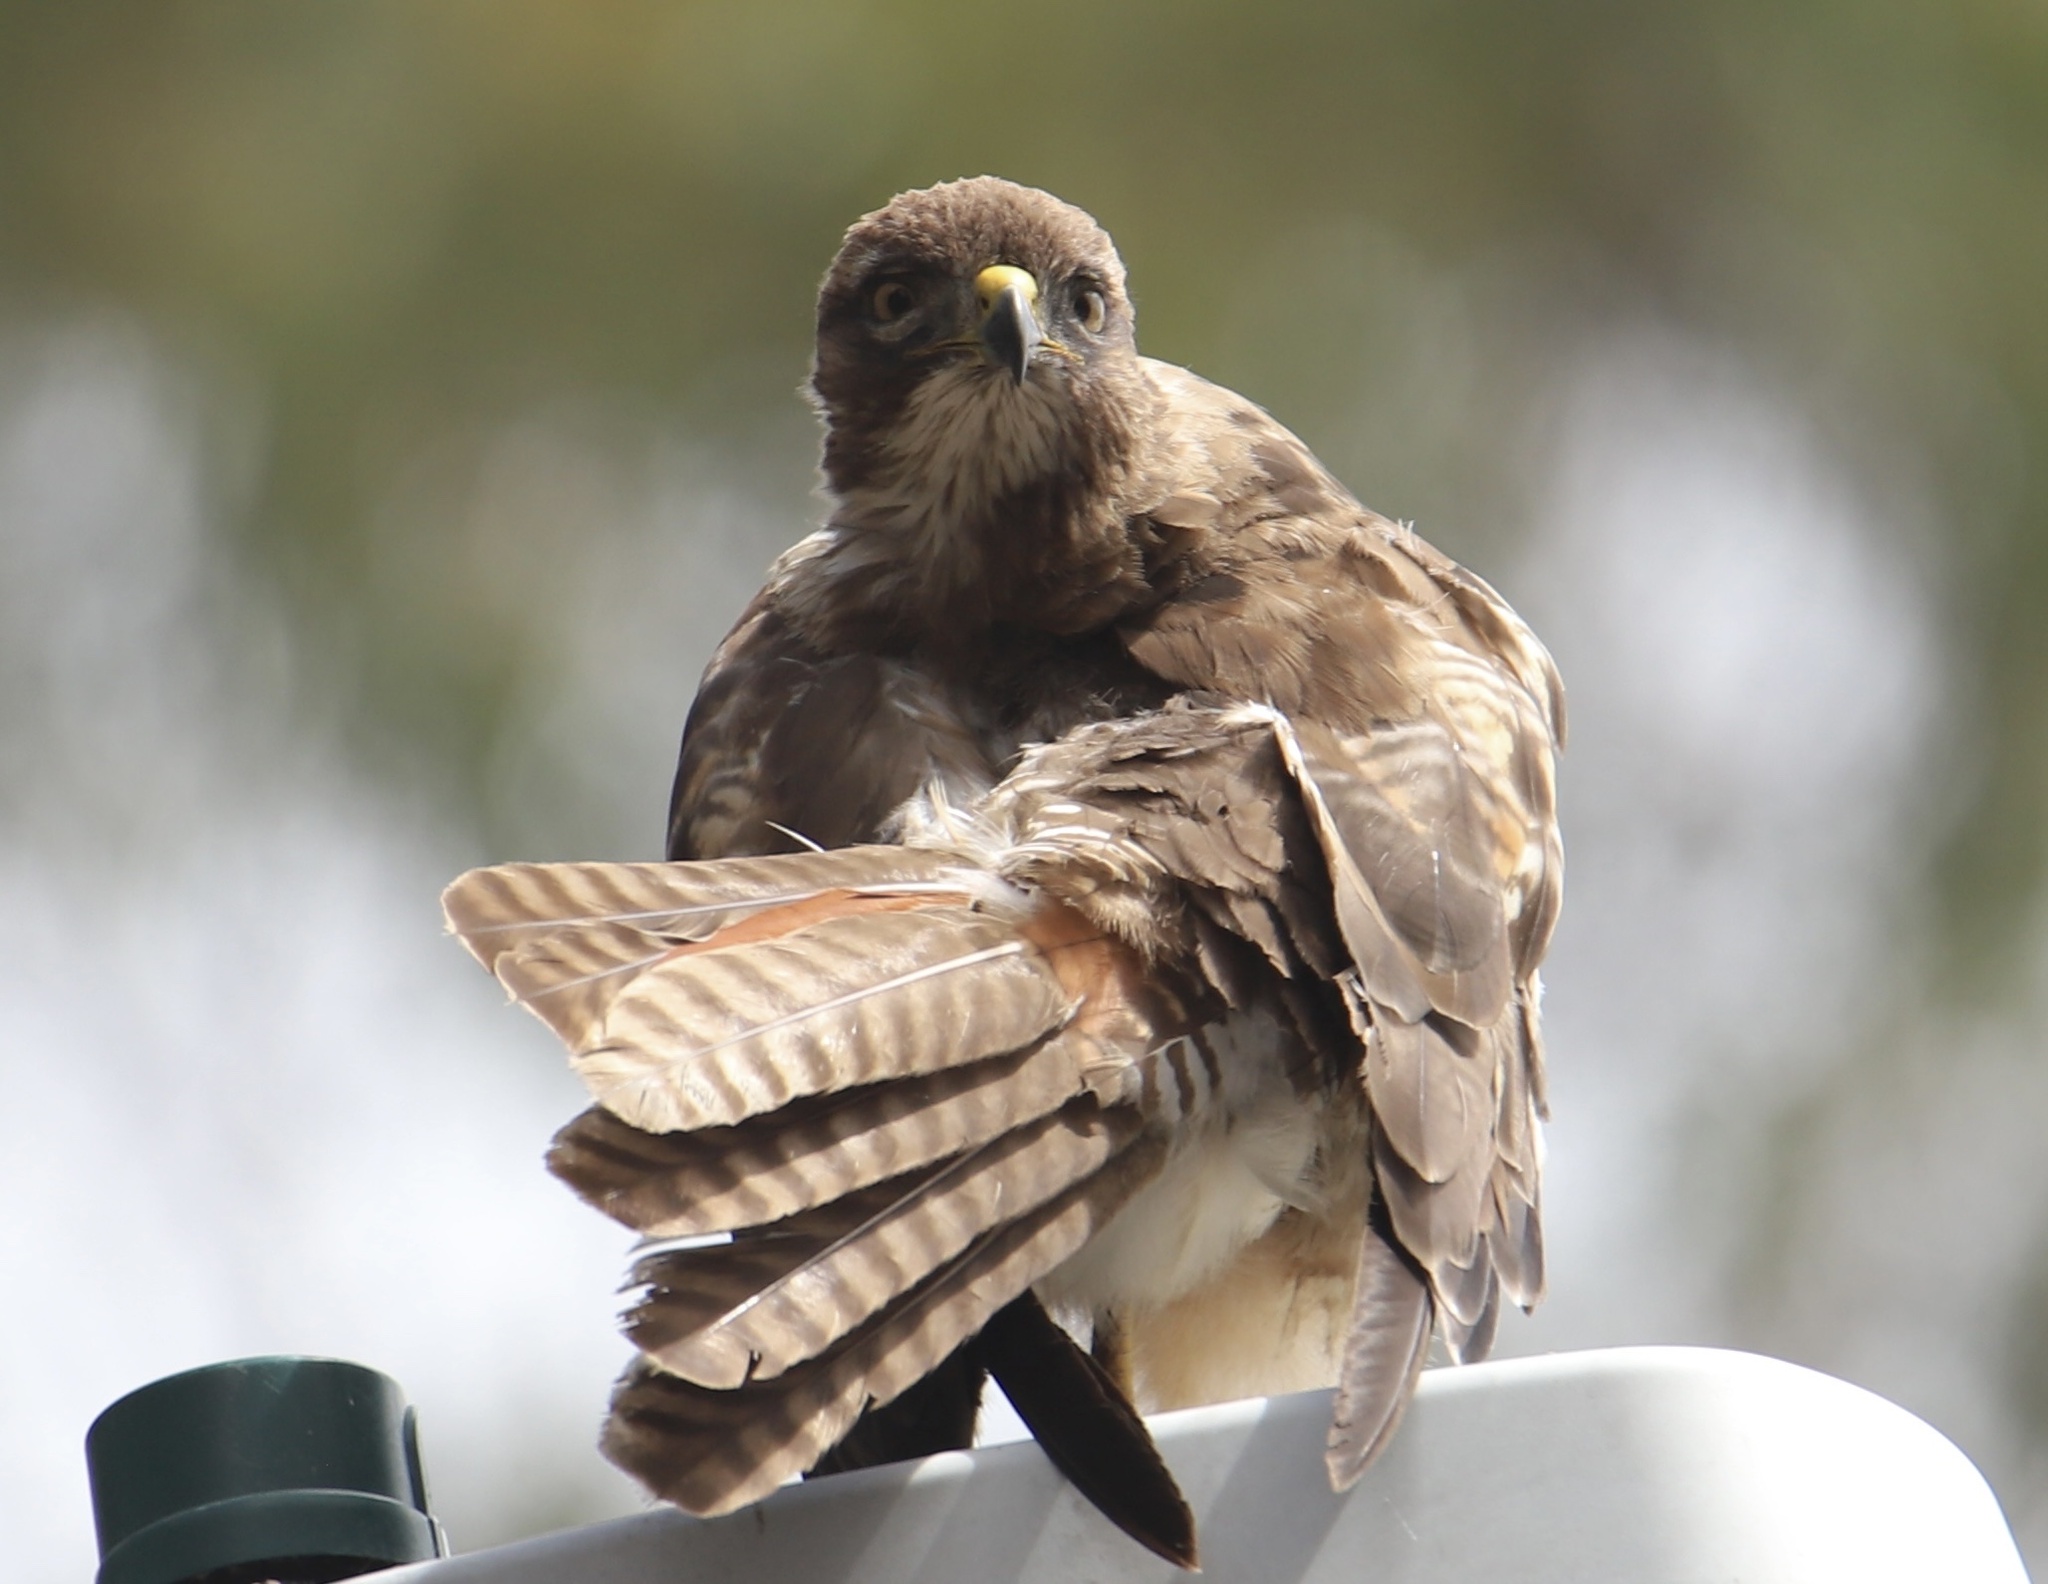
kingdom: Animalia
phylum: Chordata
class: Aves
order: Accipitriformes
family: Accipitridae
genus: Buteo
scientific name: Buteo jamaicensis
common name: Red-tailed hawk
